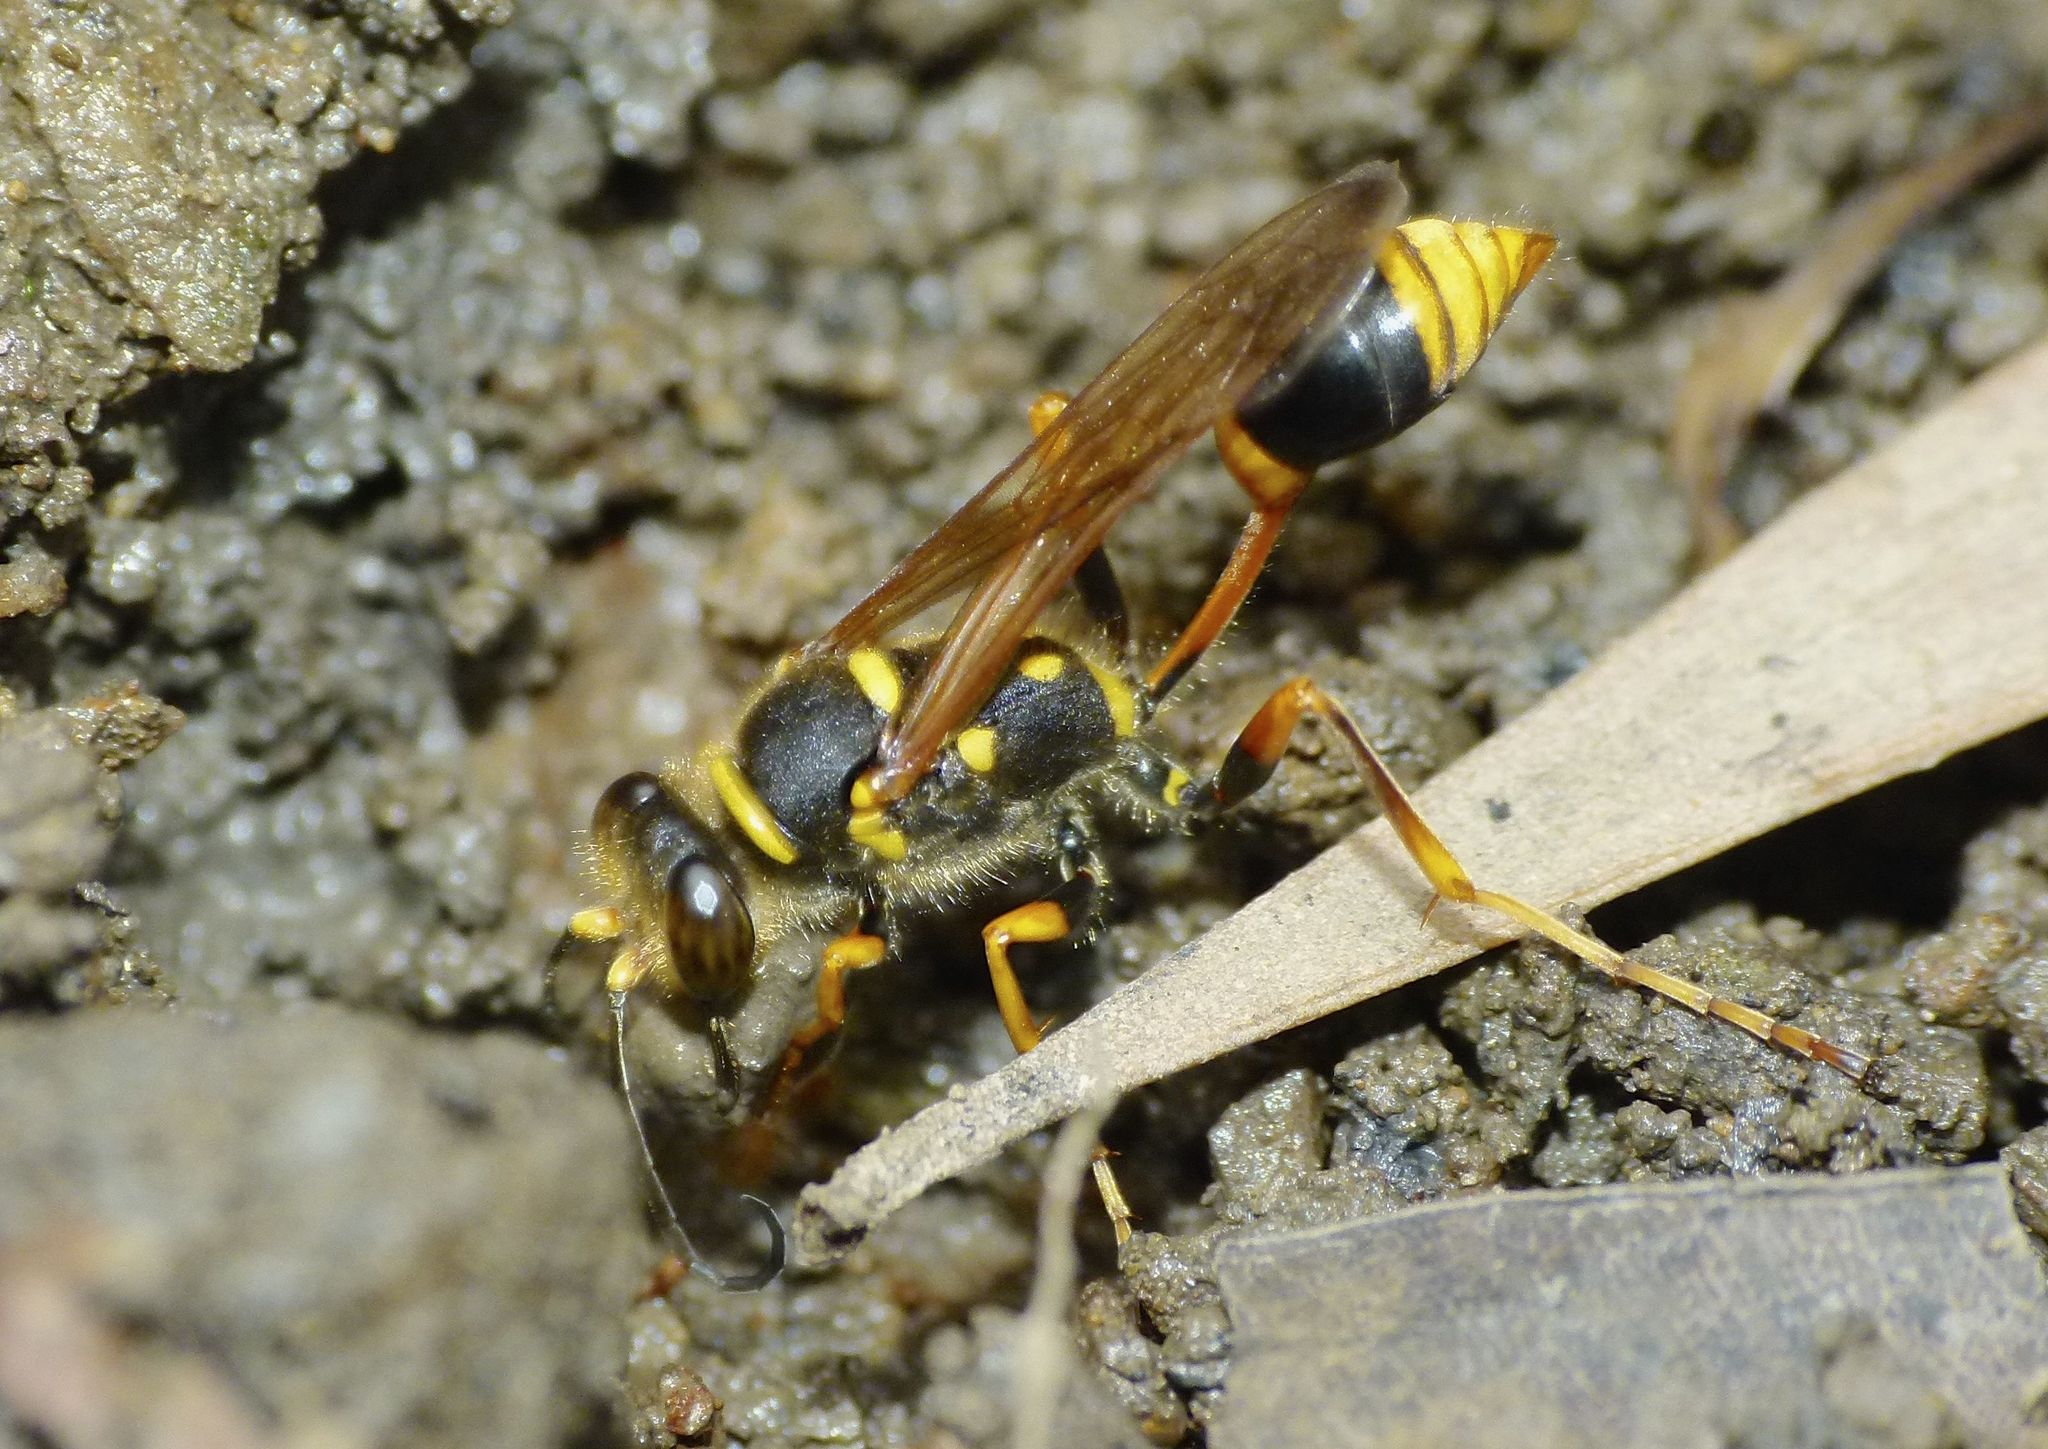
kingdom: Animalia
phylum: Arthropoda
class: Insecta
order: Hymenoptera
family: Sphecidae
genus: Sceliphron
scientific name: Sceliphron formosum
